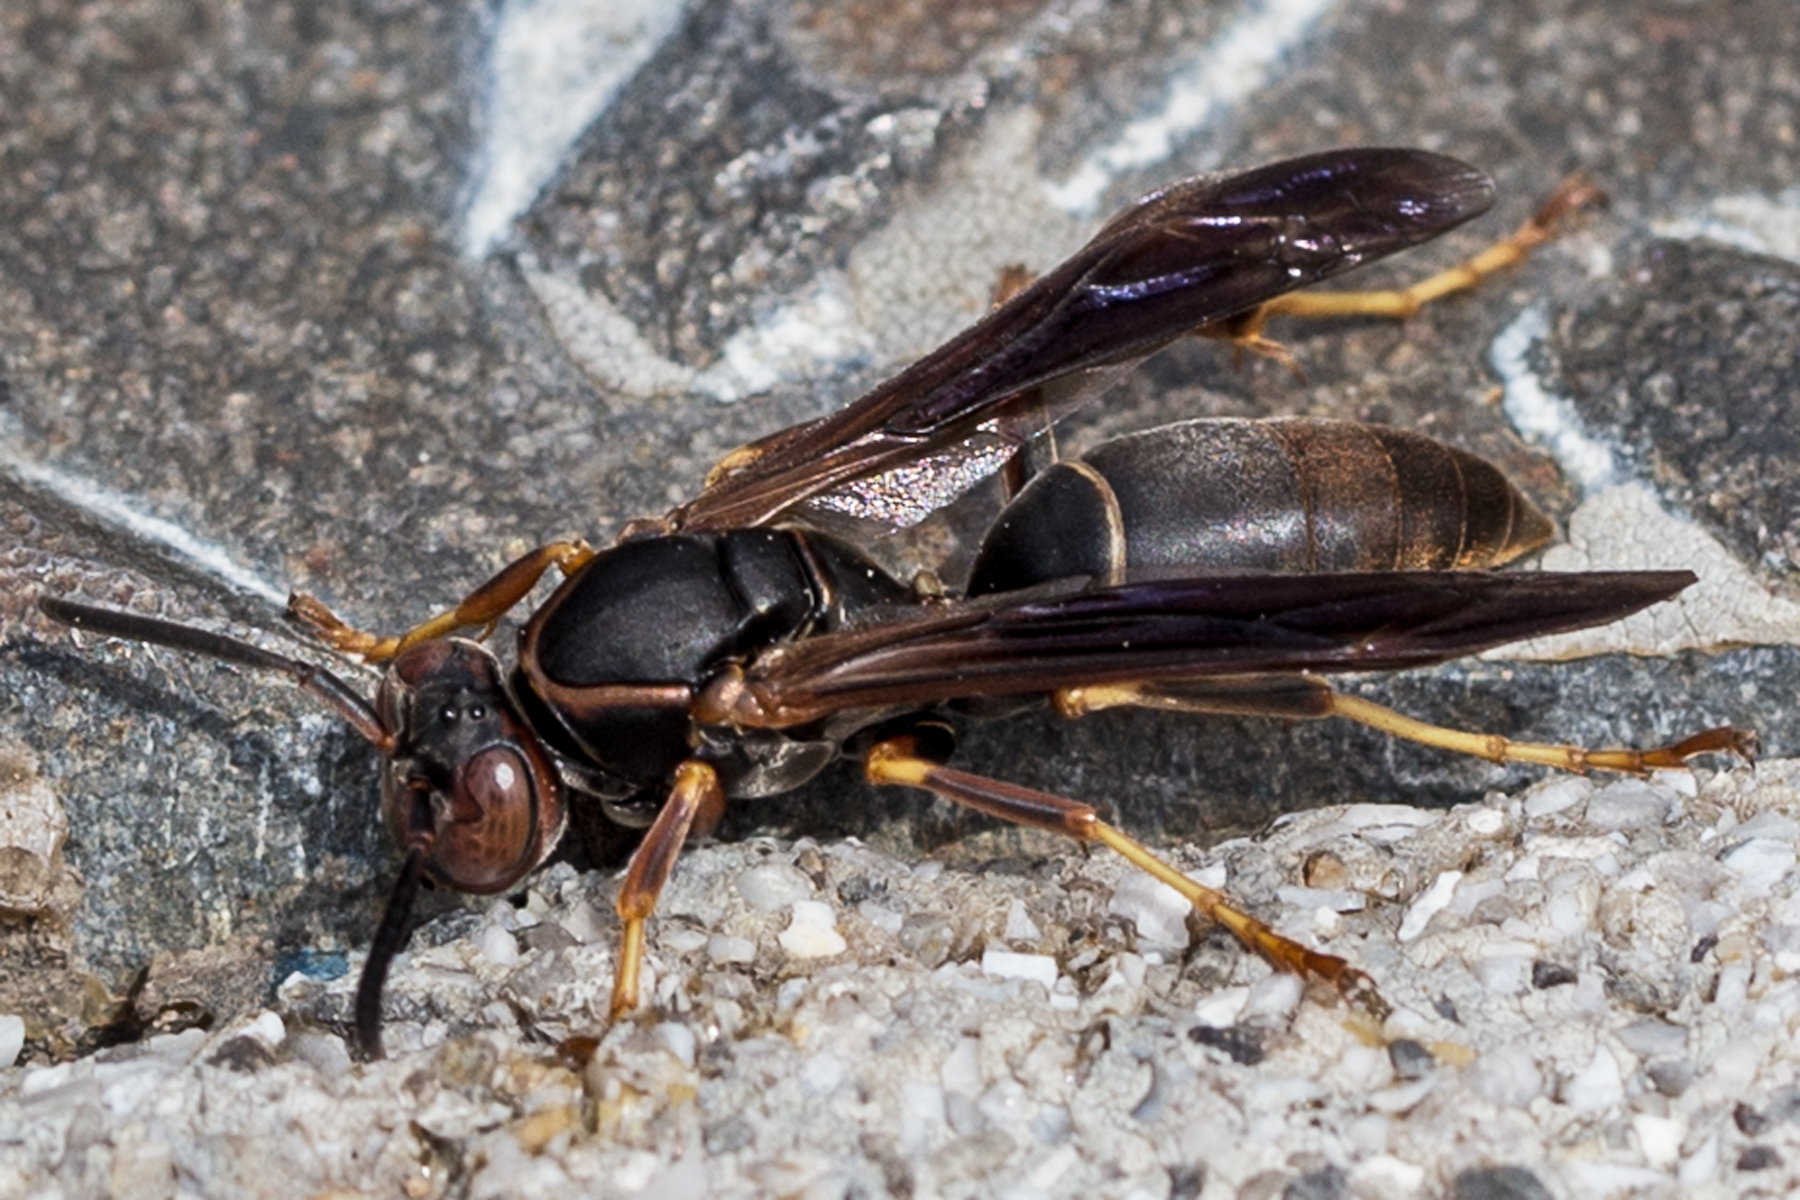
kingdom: Animalia
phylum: Arthropoda
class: Insecta
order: Hymenoptera
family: Eumenidae
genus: Polistes
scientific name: Polistes fuscatus
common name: Dark paper wasp
